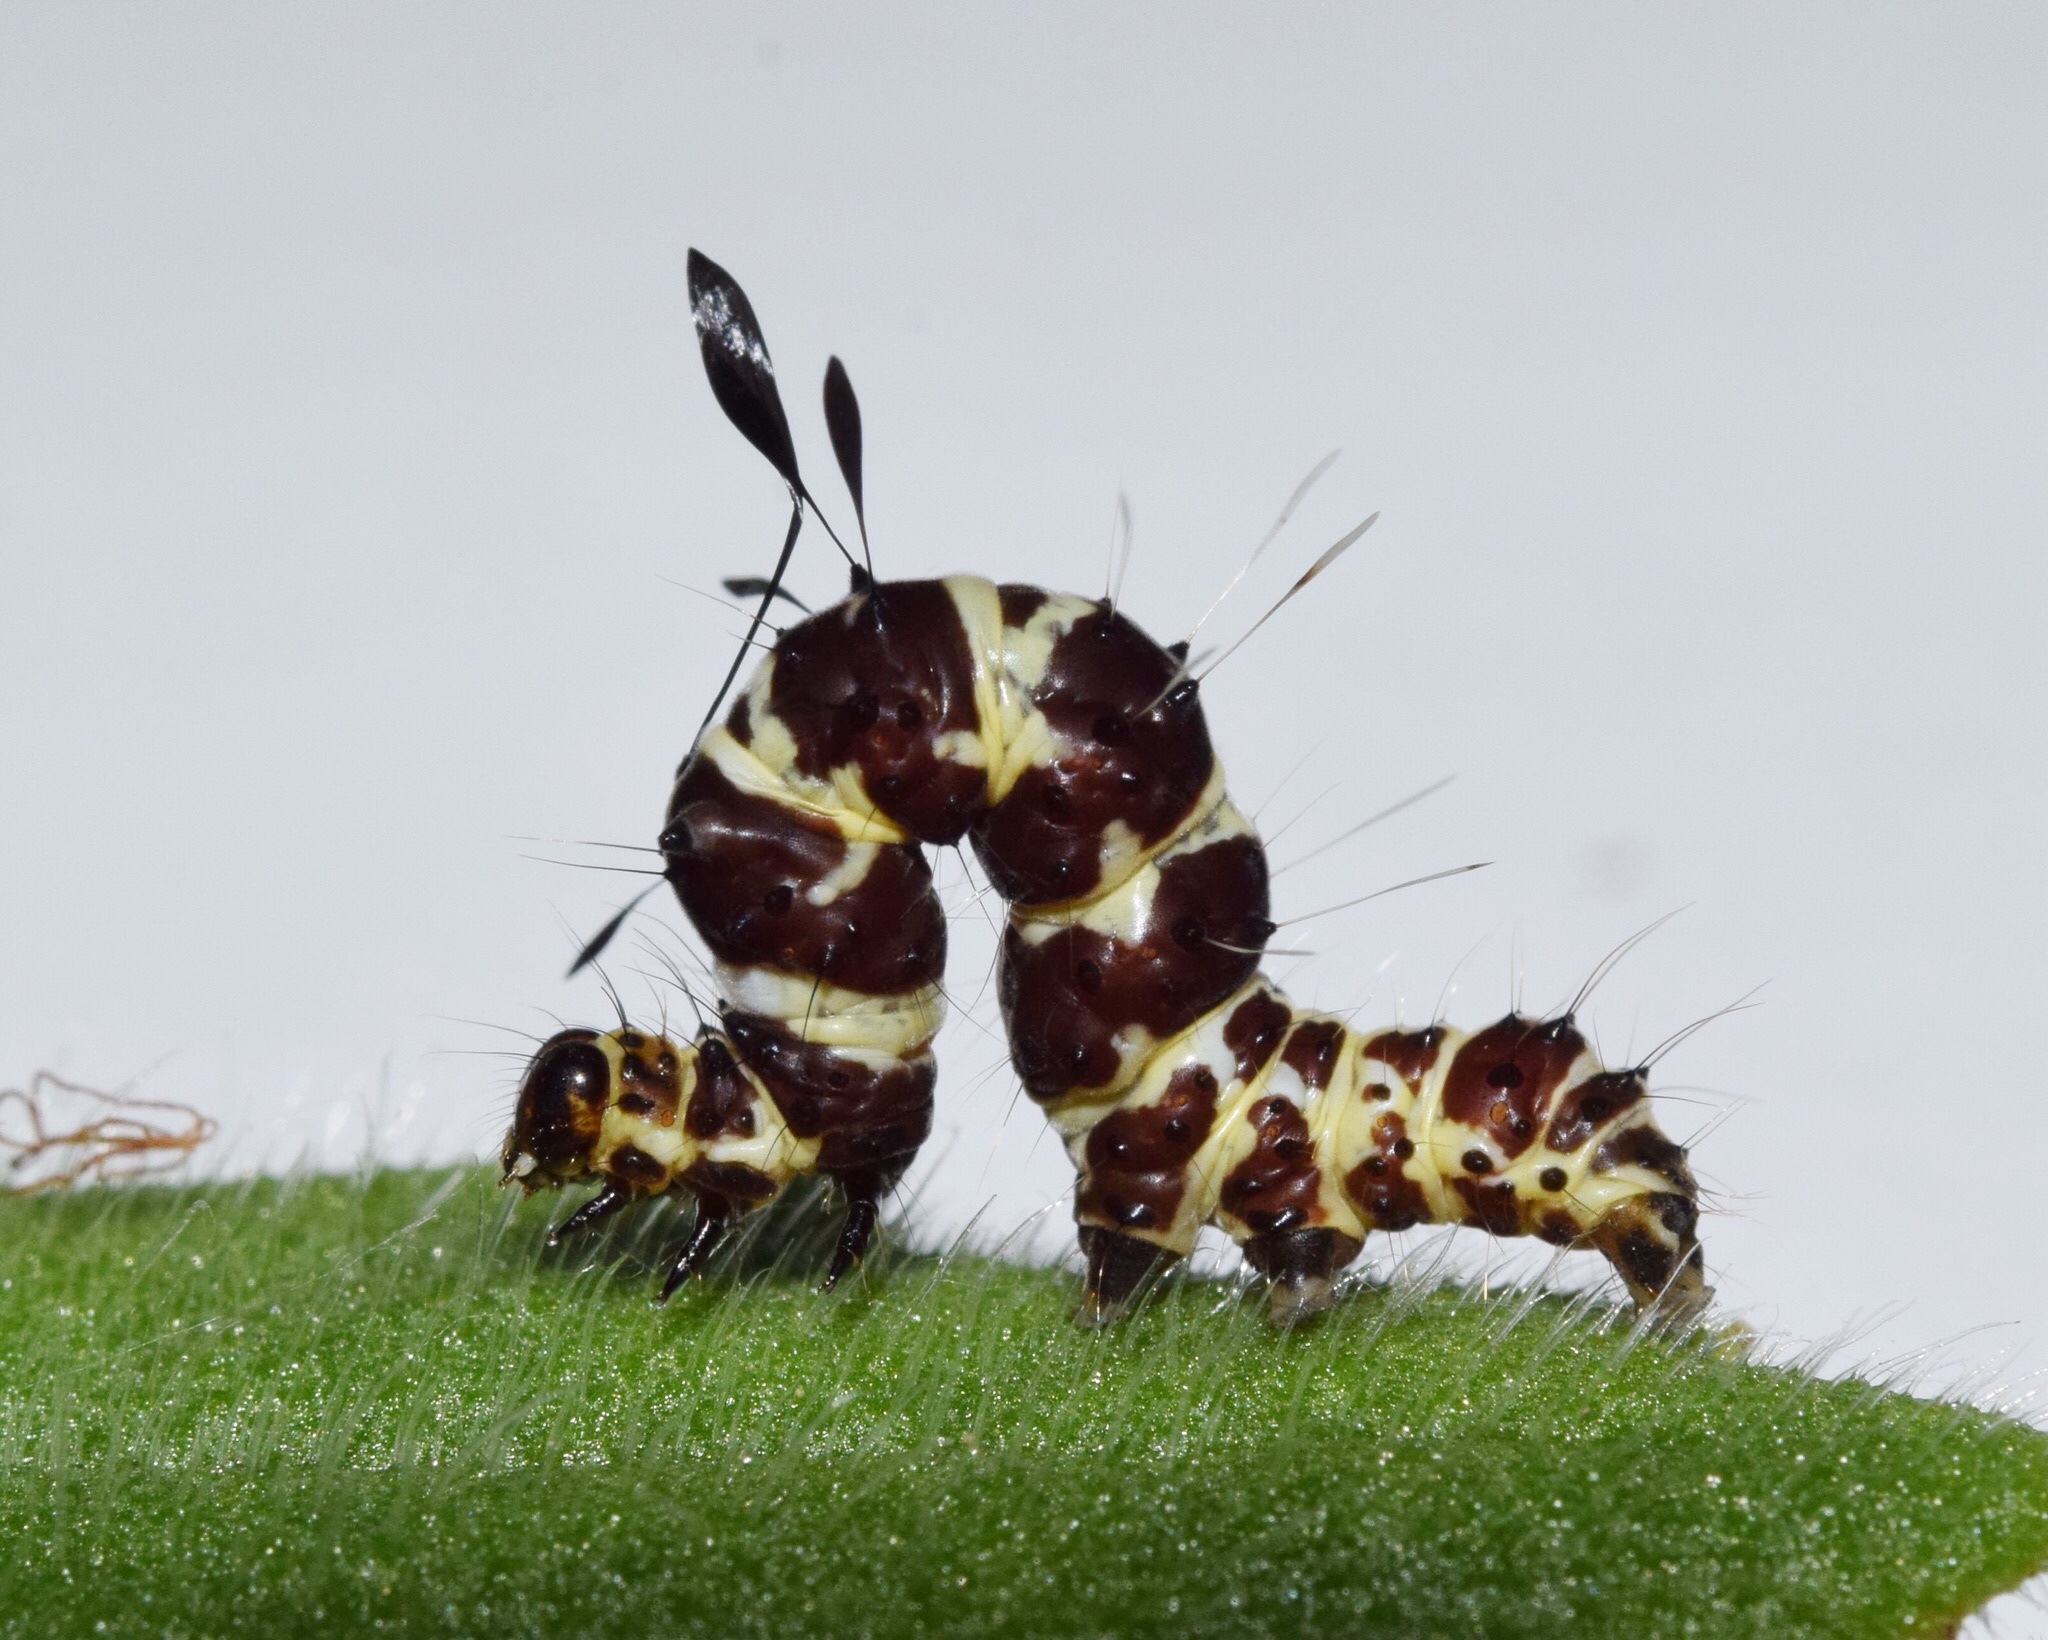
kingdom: Animalia
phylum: Arthropoda
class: Insecta
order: Lepidoptera
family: Erebidae
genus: Rhanidophora
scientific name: Rhanidophora cinctigutta
